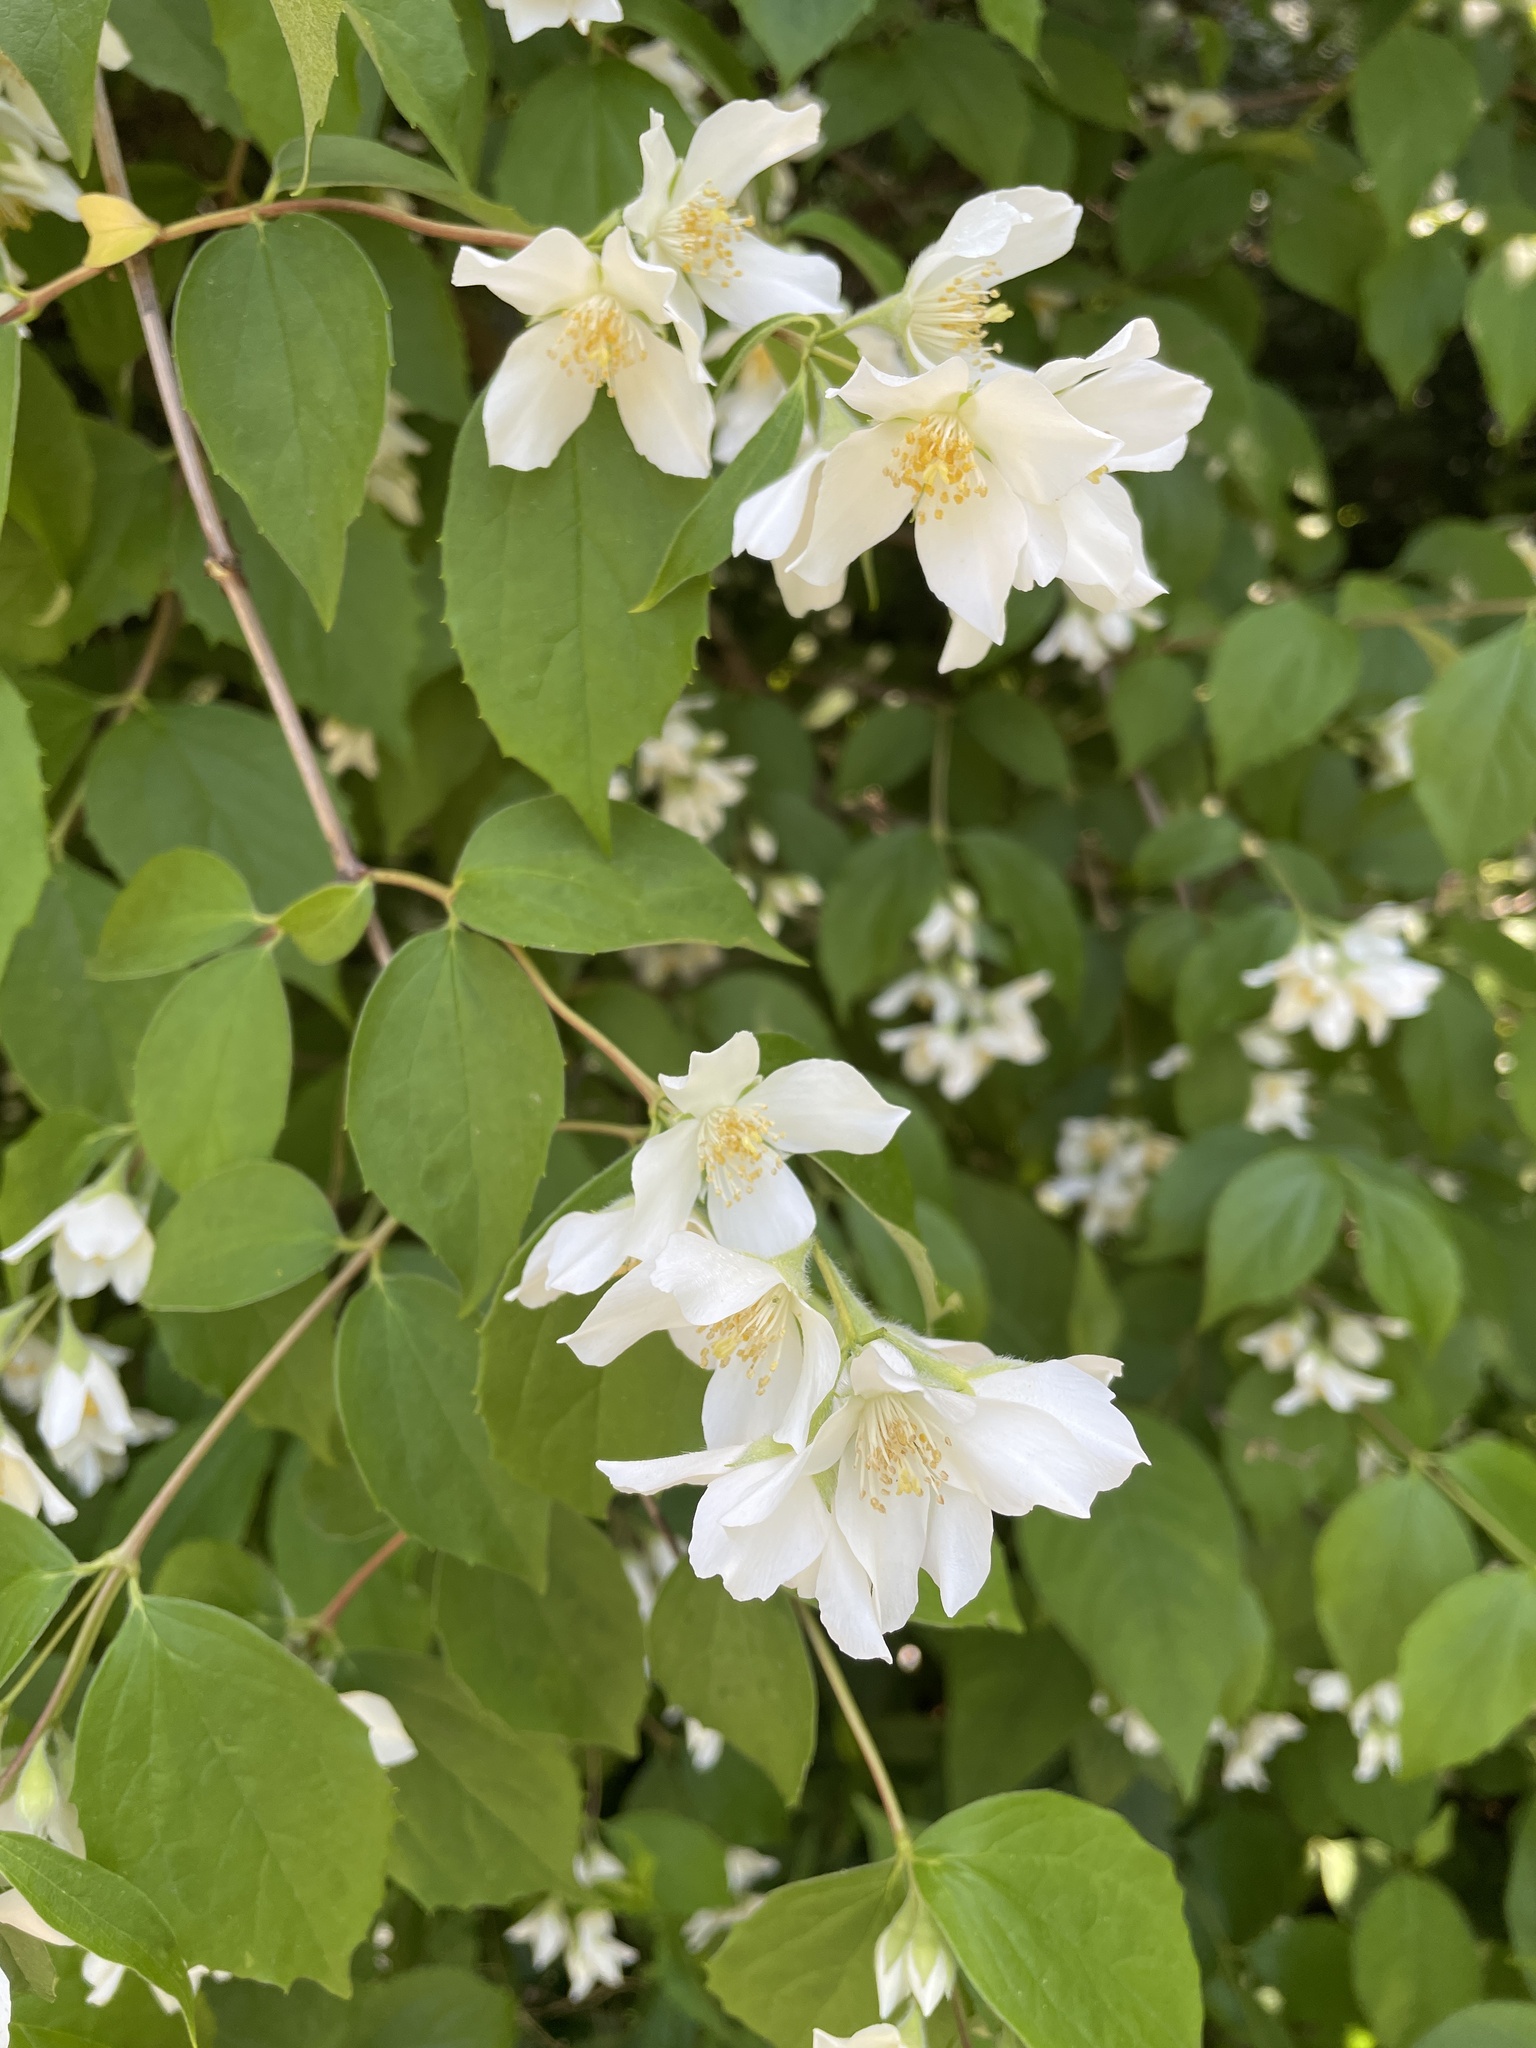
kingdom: Plantae
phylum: Tracheophyta
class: Magnoliopsida
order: Cornales
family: Hydrangeaceae
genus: Philadelphus
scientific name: Philadelphus coronarius
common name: Mock orange
